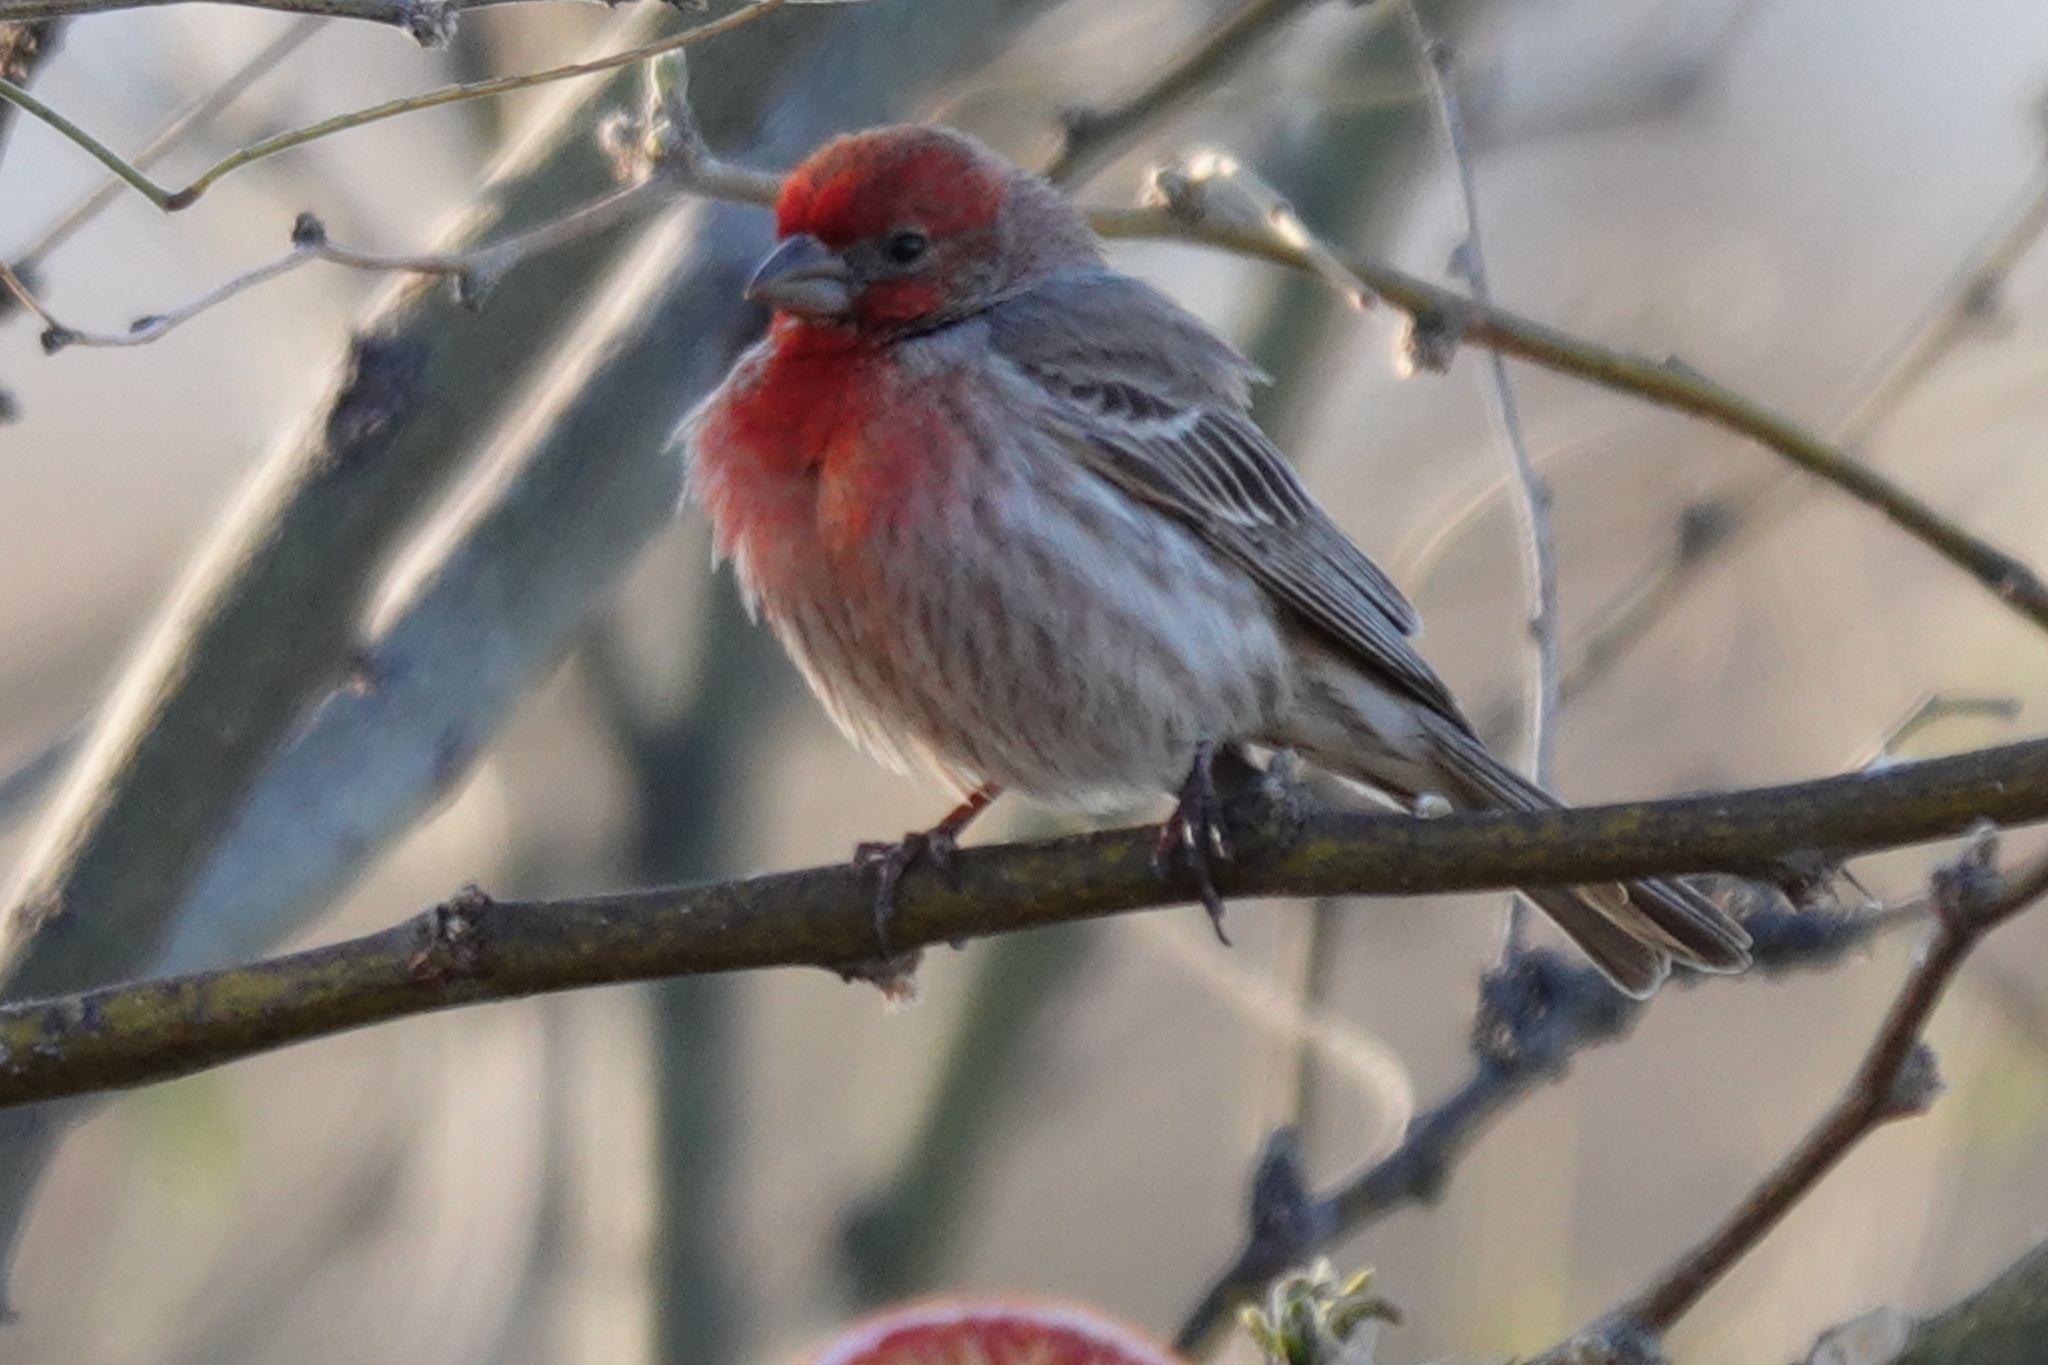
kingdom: Animalia
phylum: Chordata
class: Aves
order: Passeriformes
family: Fringillidae
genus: Haemorhous
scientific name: Haemorhous mexicanus
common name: House finch
